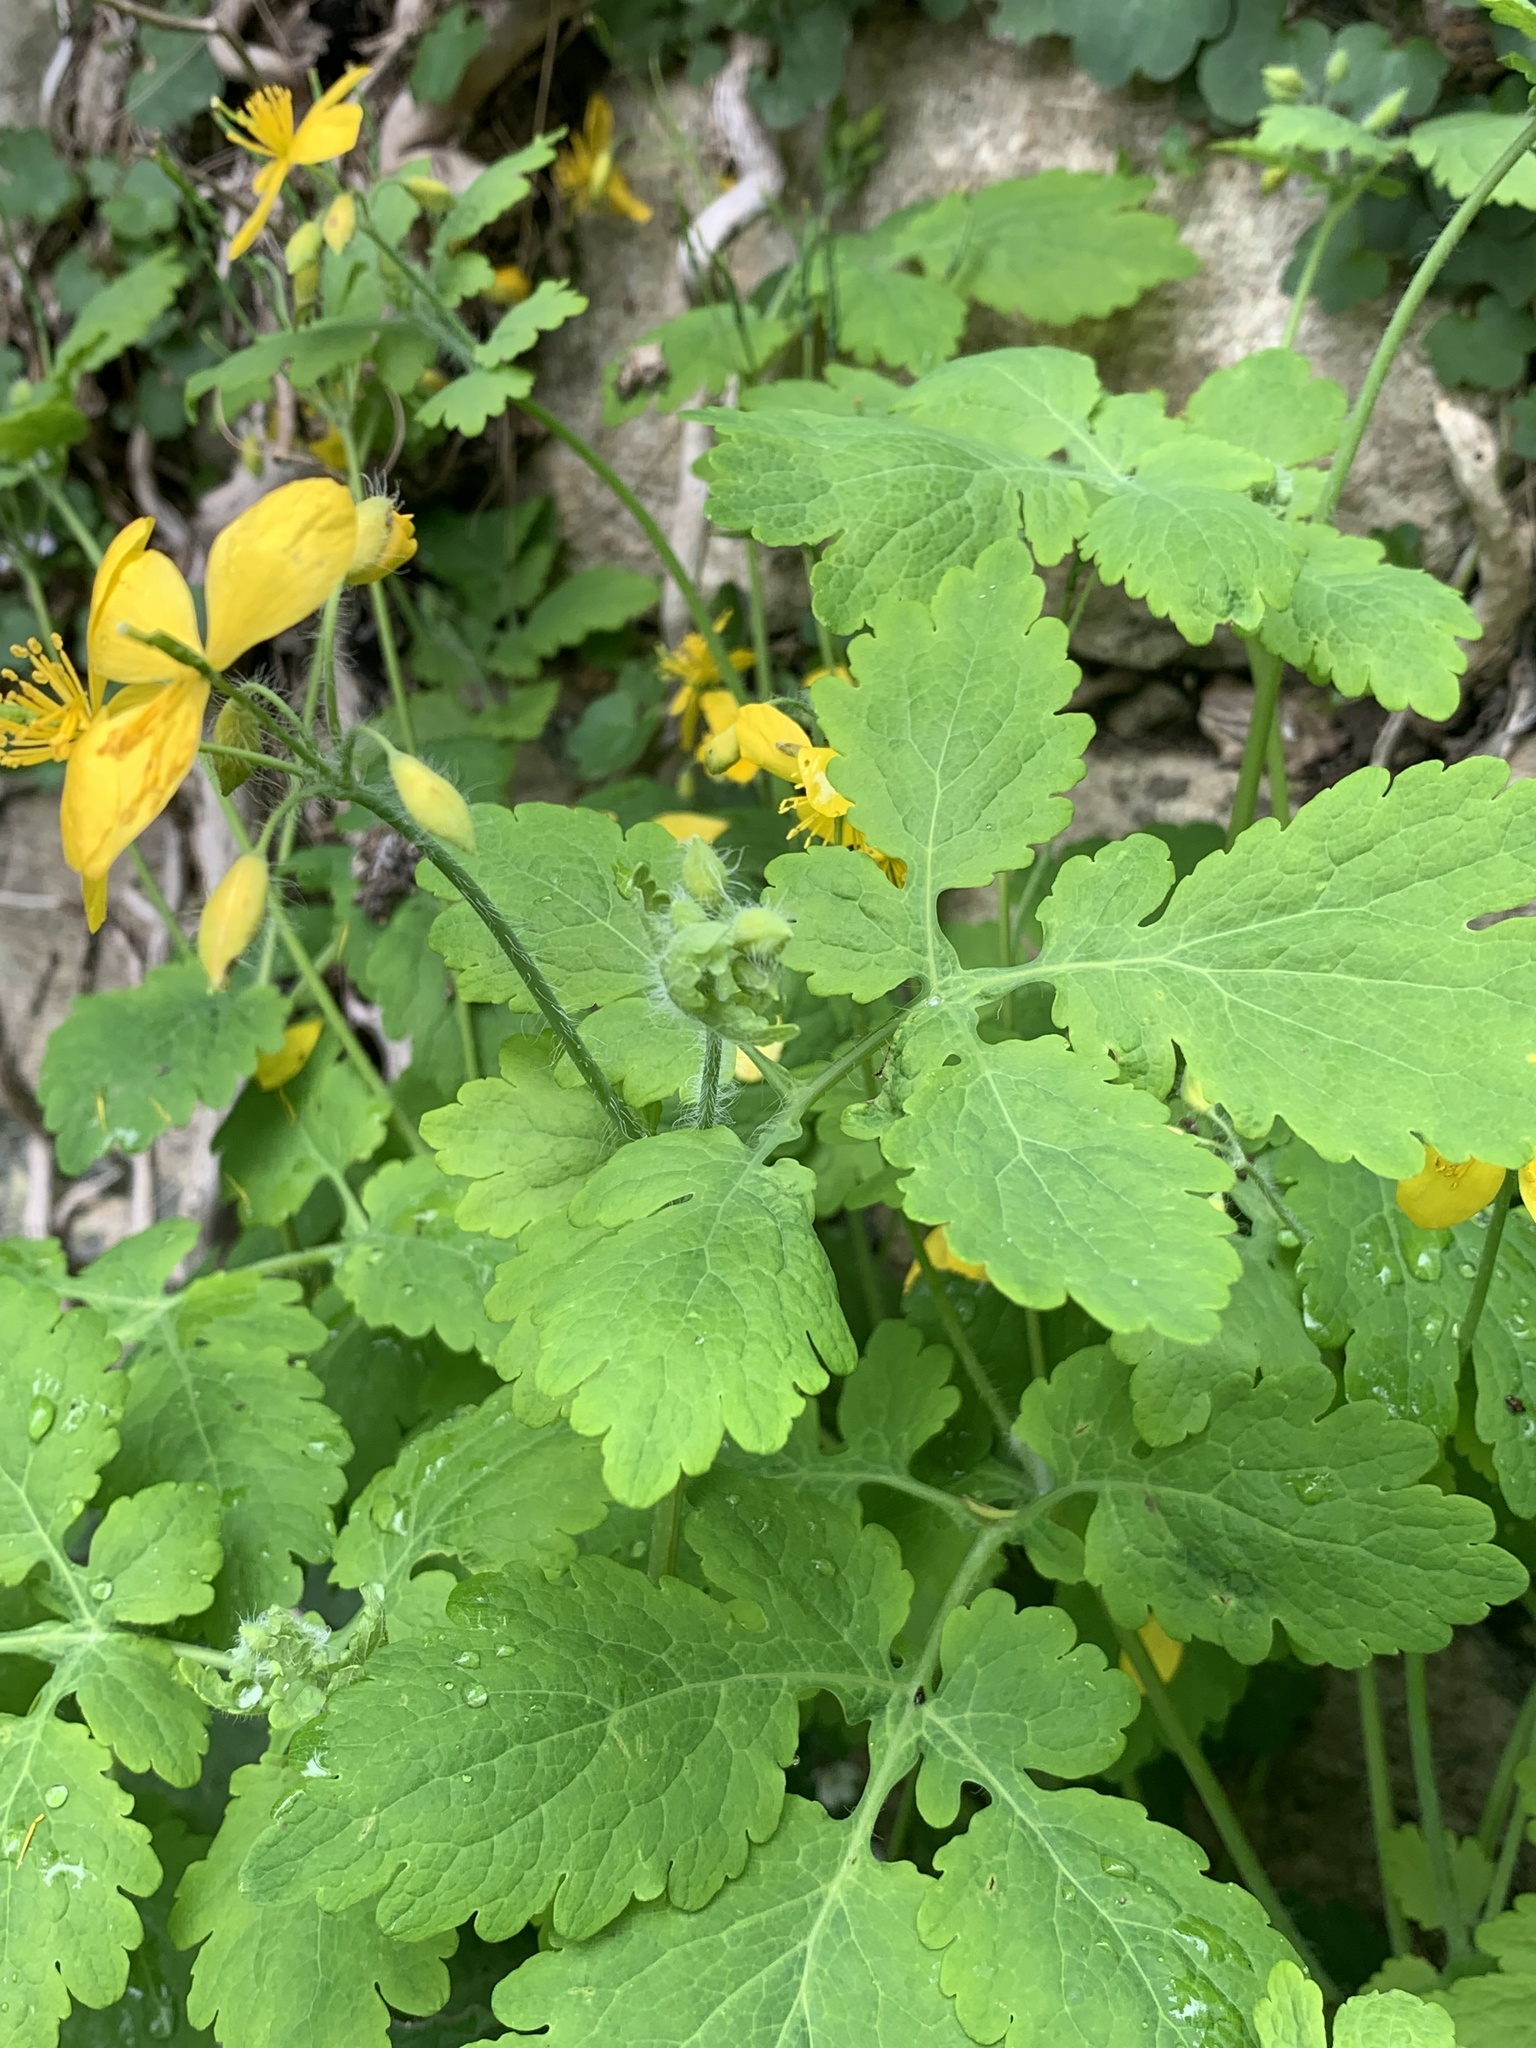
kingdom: Plantae
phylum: Tracheophyta
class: Magnoliopsida
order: Ranunculales
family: Papaveraceae
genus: Chelidonium
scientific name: Chelidonium majus
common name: Greater celandine
